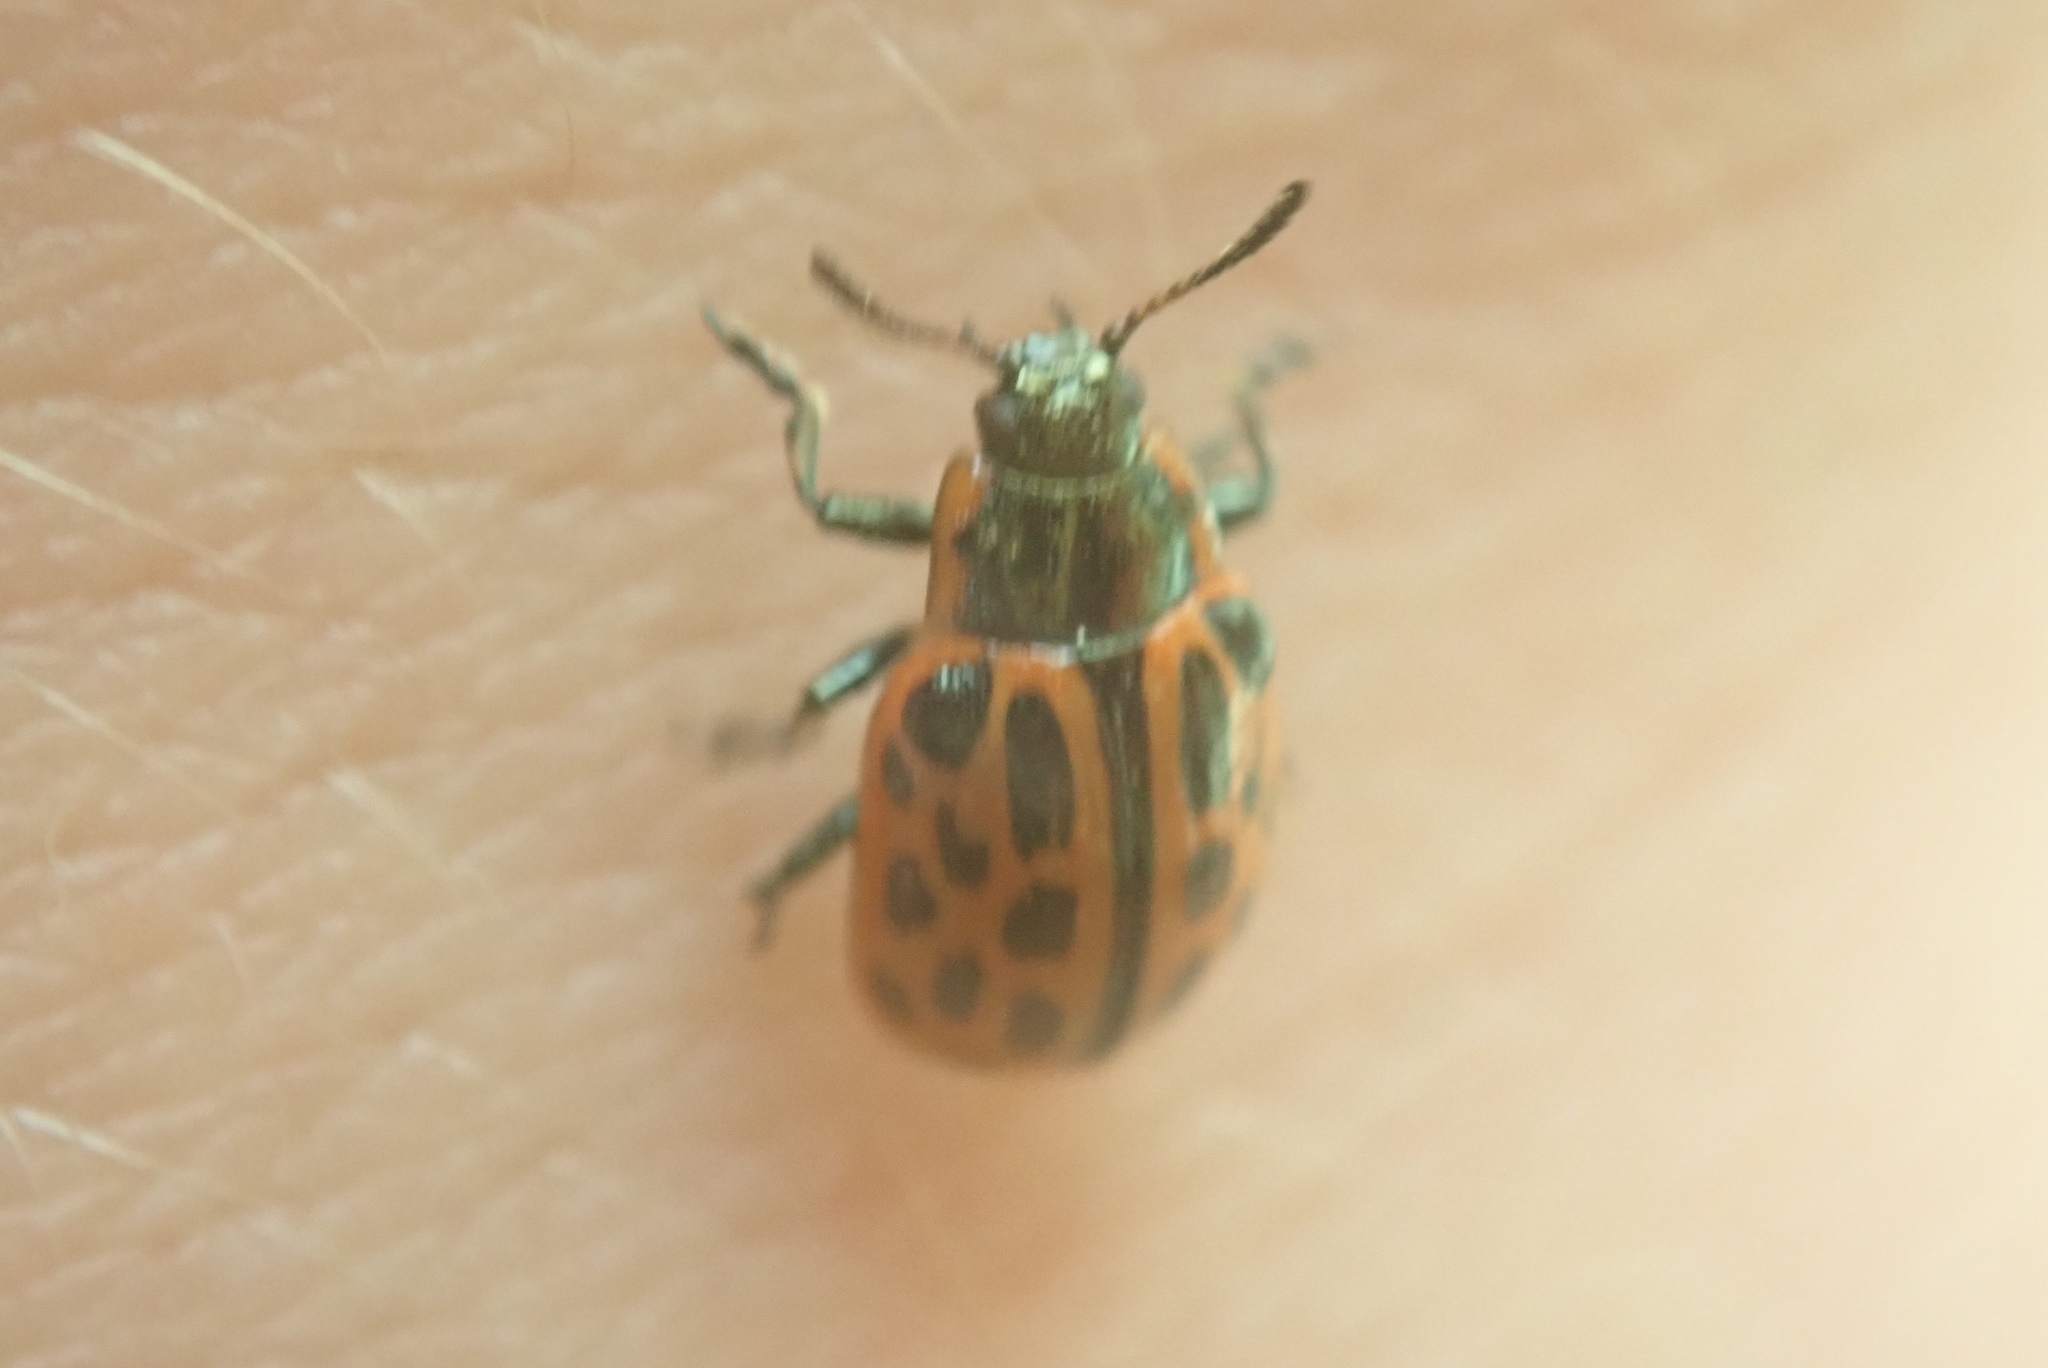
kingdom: Animalia
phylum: Arthropoda
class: Insecta
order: Coleoptera
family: Chrysomelidae
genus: Chrysomela
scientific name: Chrysomela vigintipunctata
